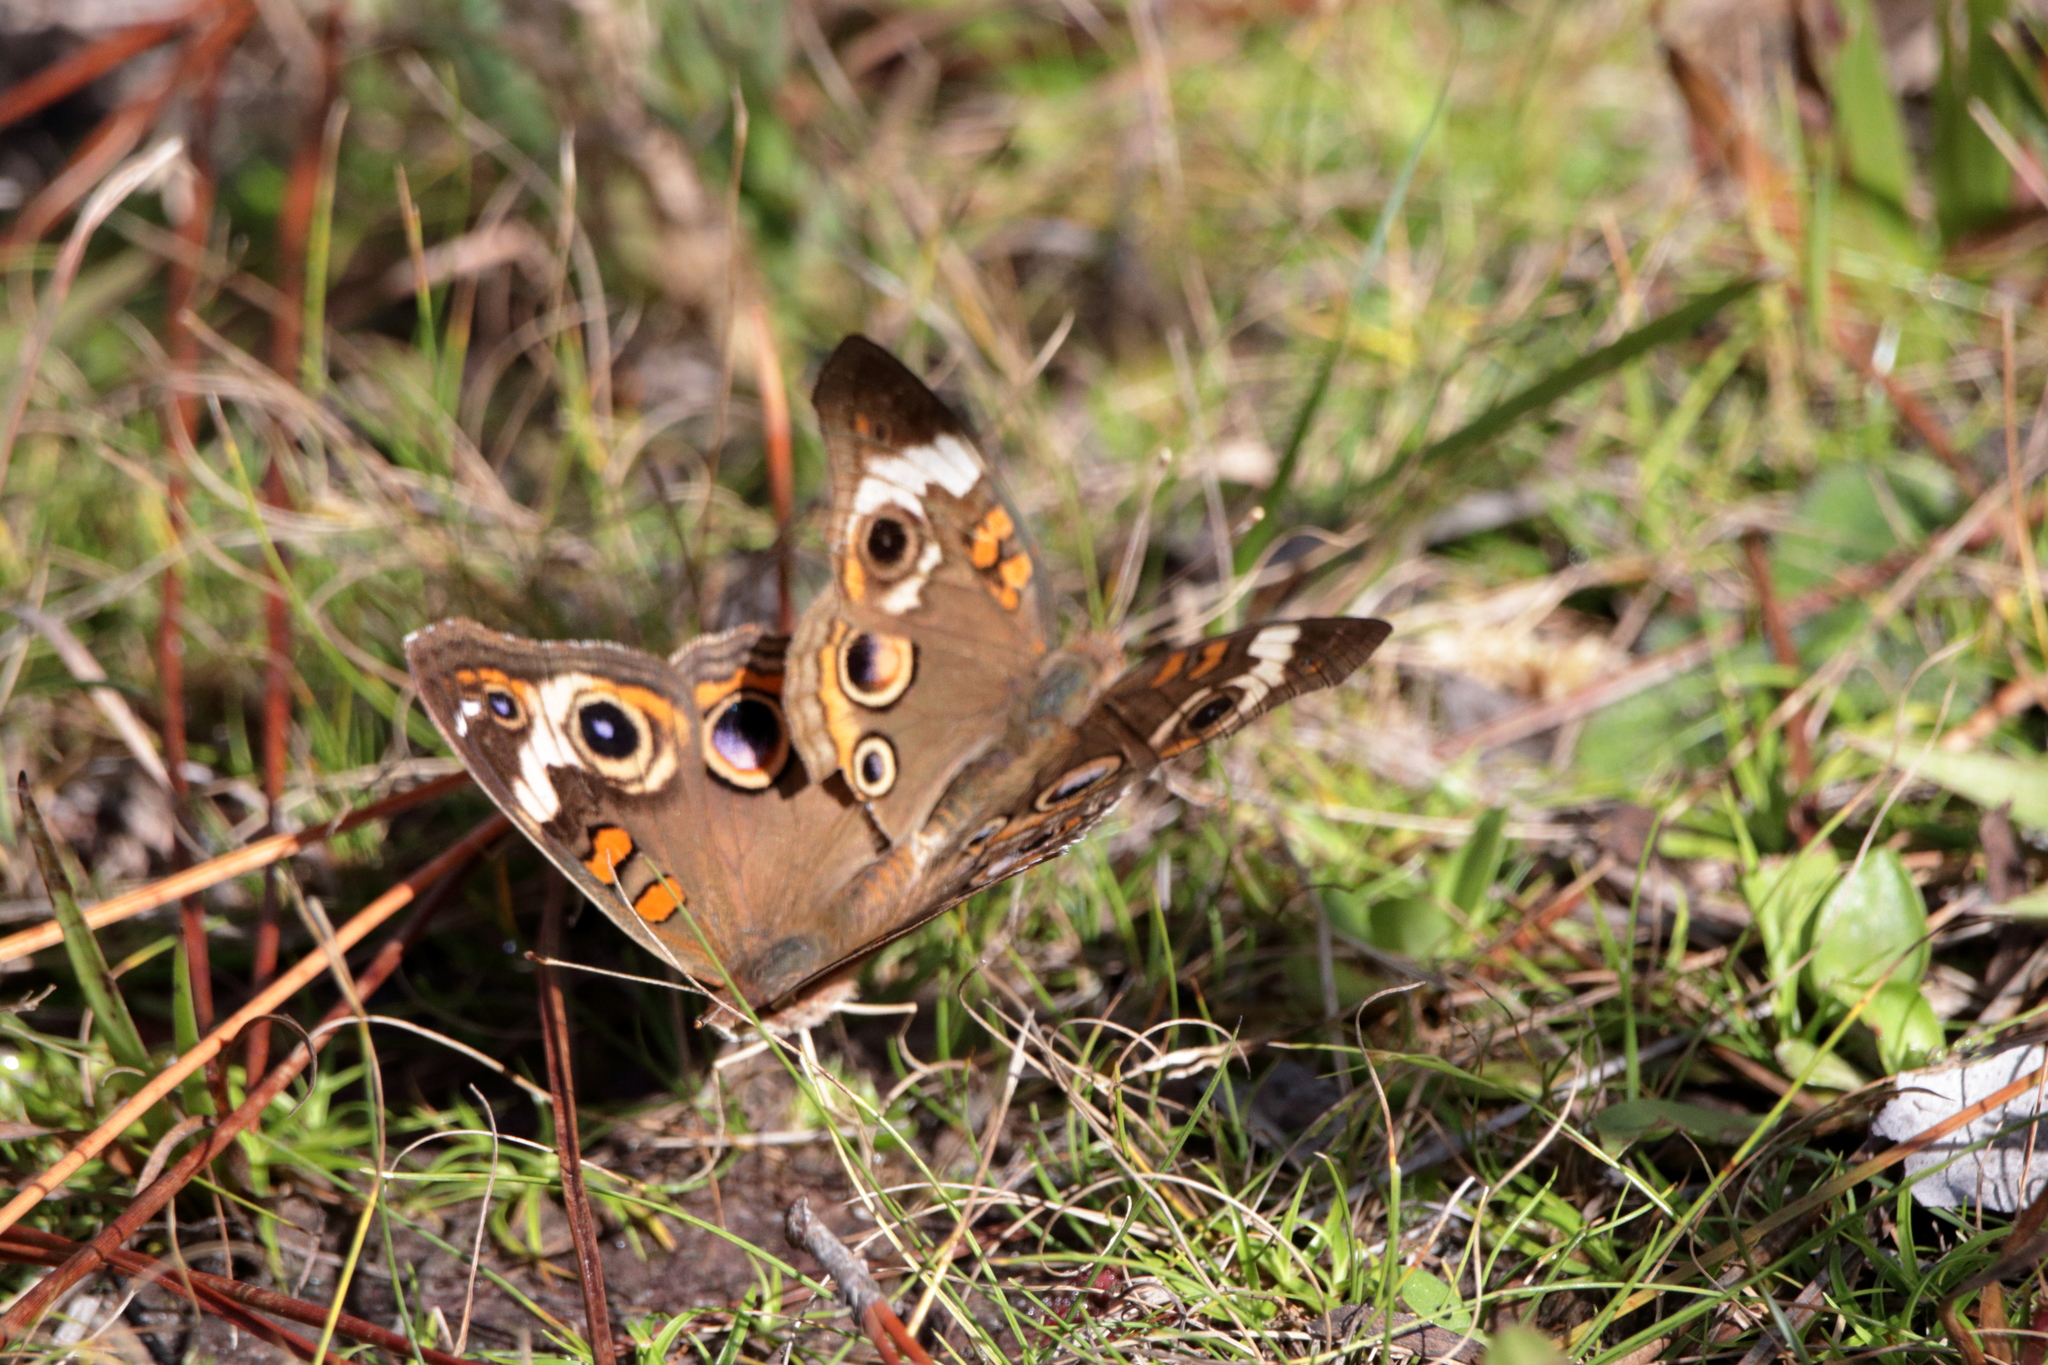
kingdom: Animalia
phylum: Arthropoda
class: Insecta
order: Lepidoptera
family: Nymphalidae
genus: Junonia
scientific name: Junonia coenia
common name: Common buckeye
